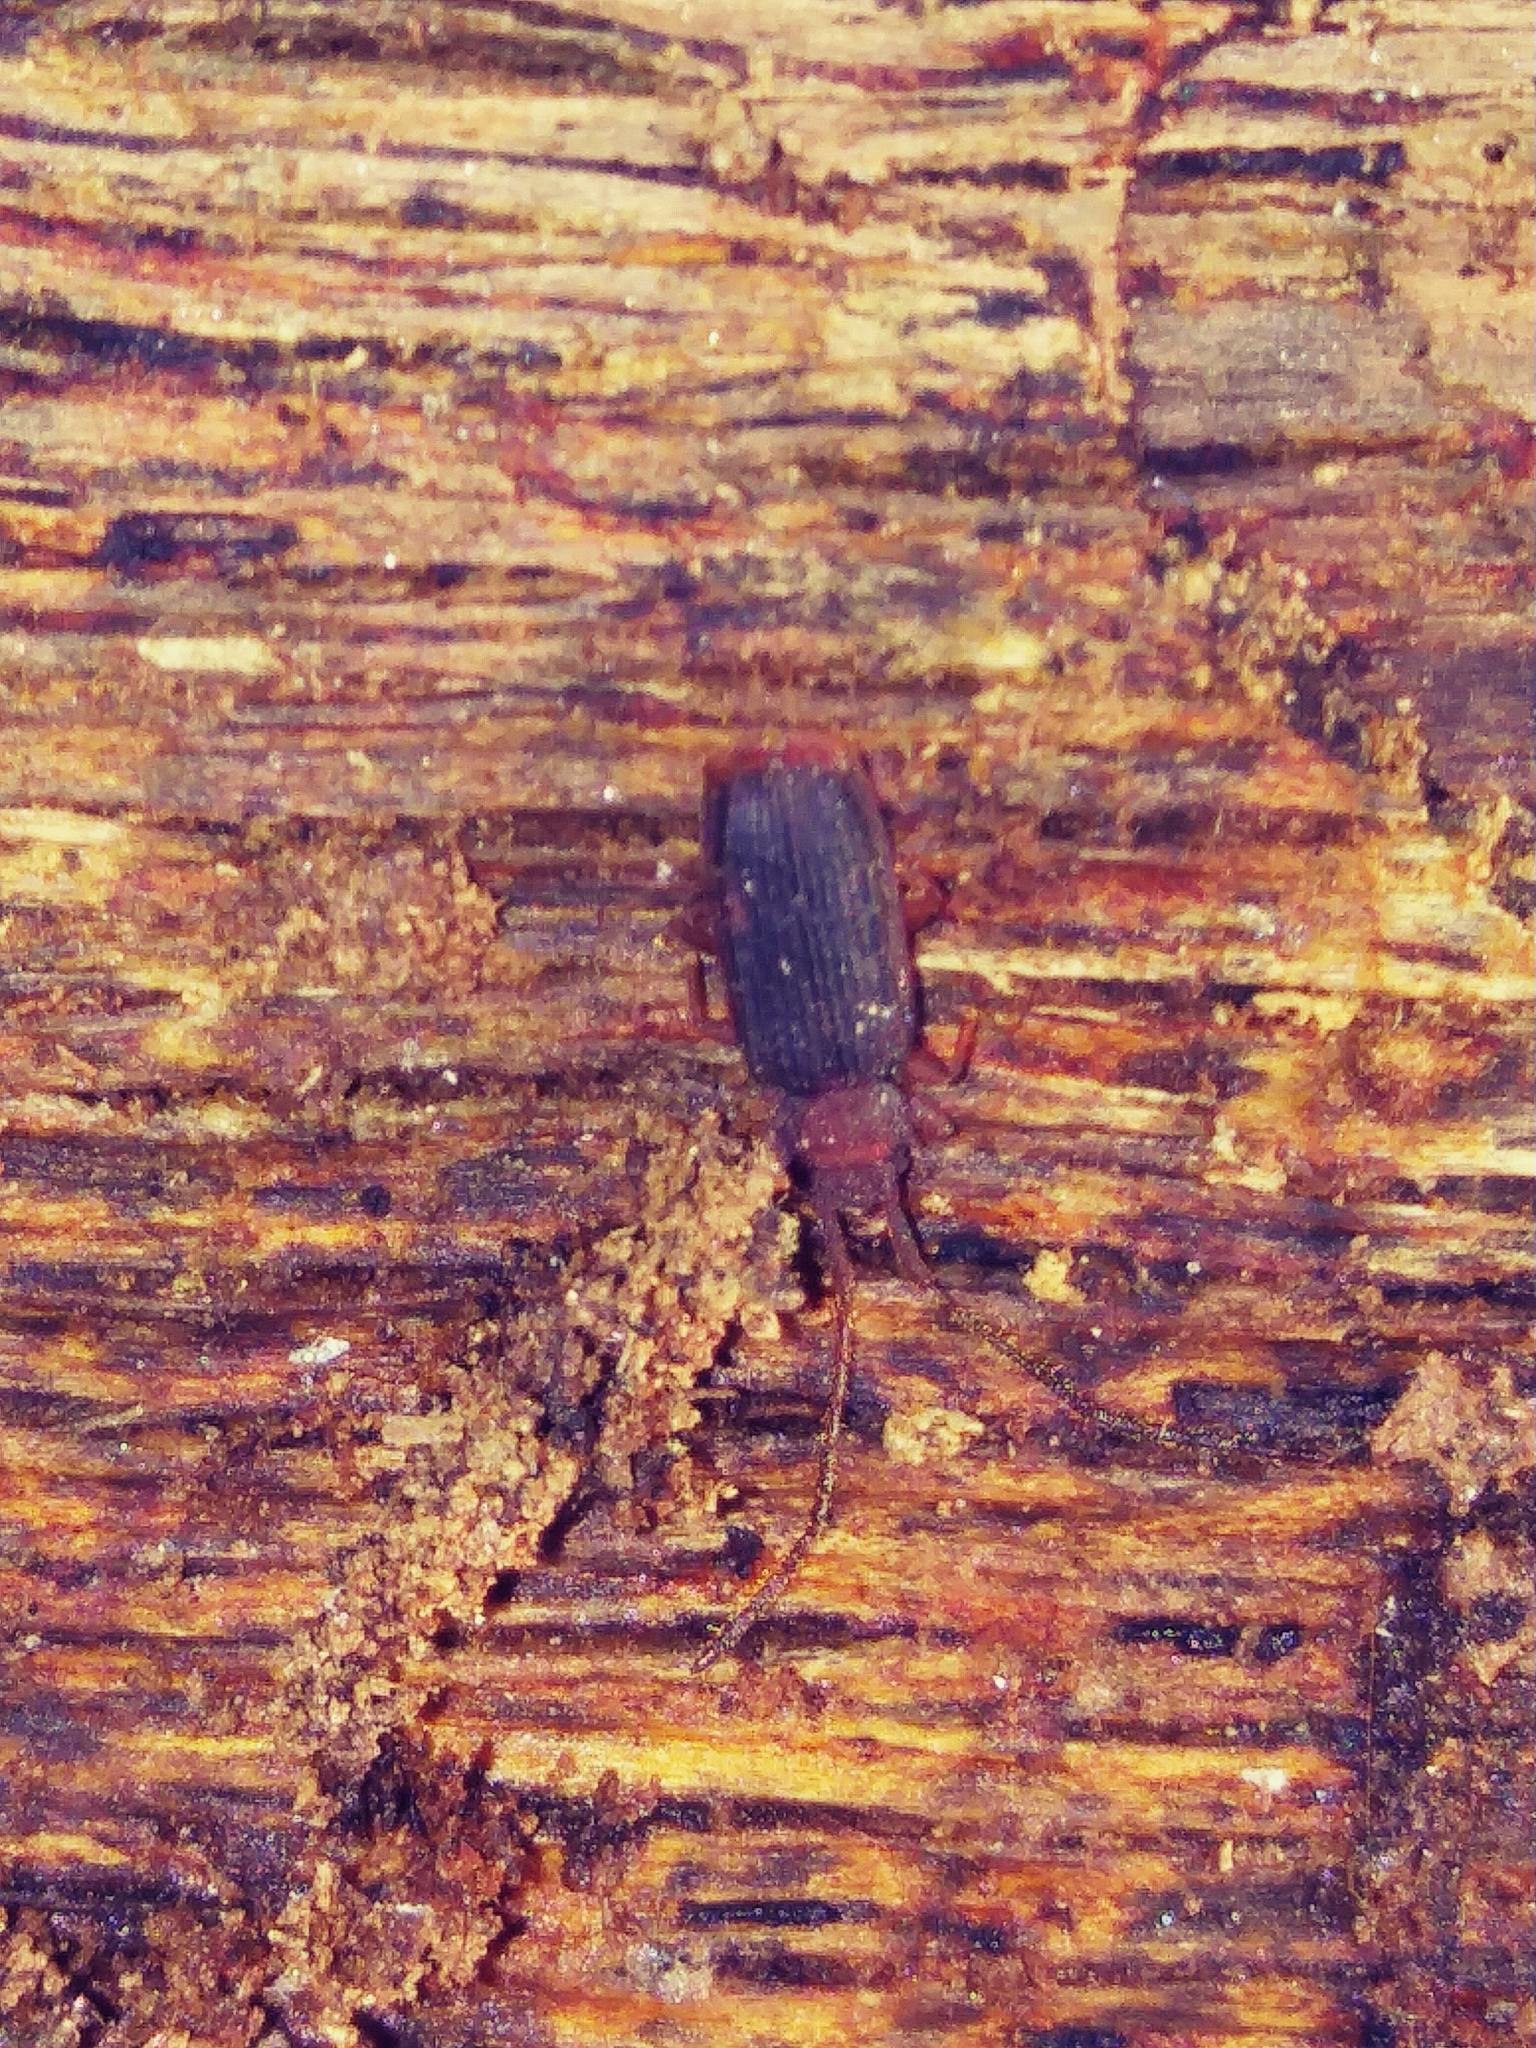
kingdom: Animalia
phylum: Arthropoda
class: Insecta
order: Coleoptera
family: Silvanidae
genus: Uleiota
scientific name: Uleiota dubia
